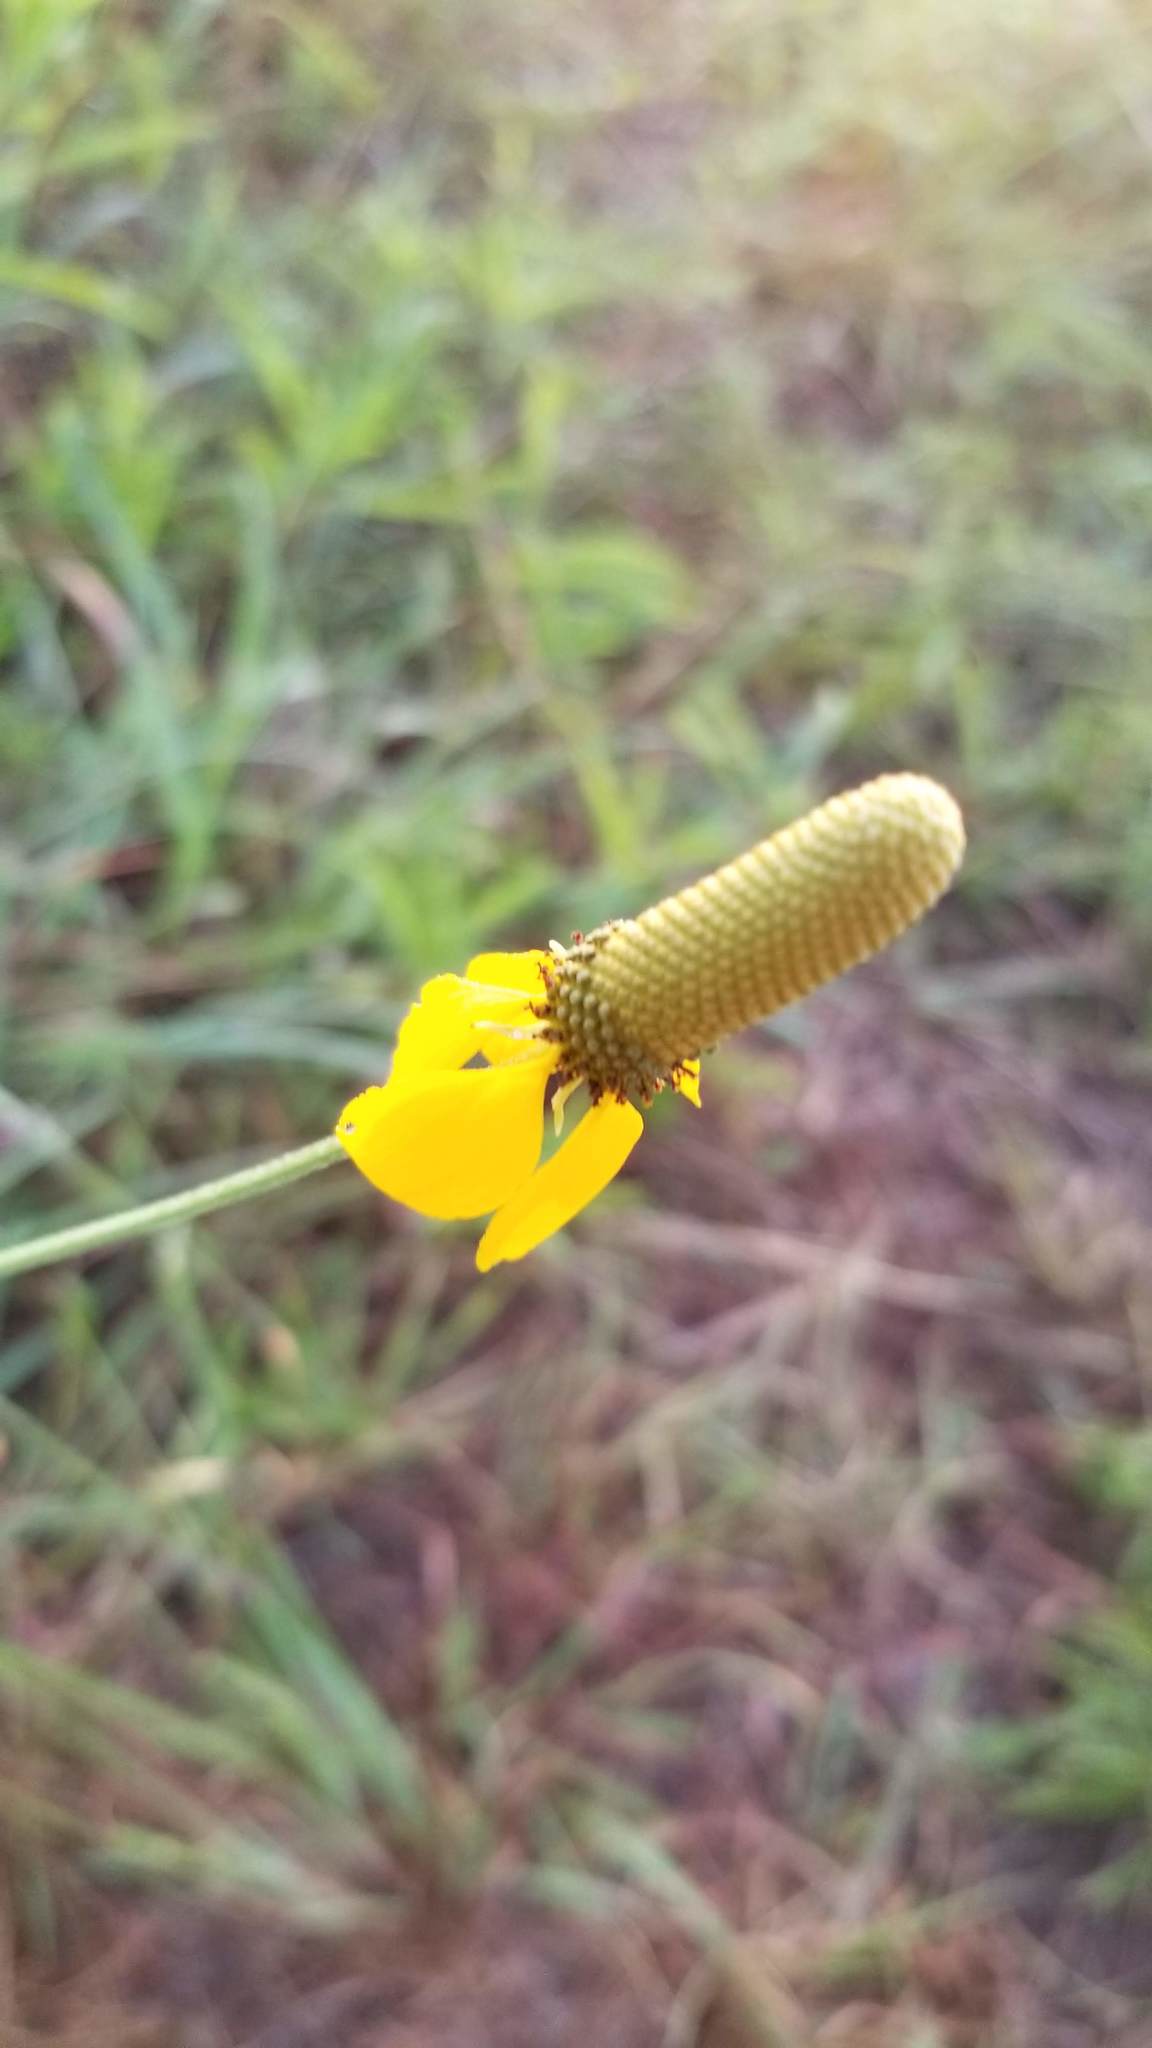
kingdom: Plantae
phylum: Tracheophyta
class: Magnoliopsida
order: Asterales
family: Asteraceae
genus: Ratibida
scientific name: Ratibida columnifera
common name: Prairie coneflower
